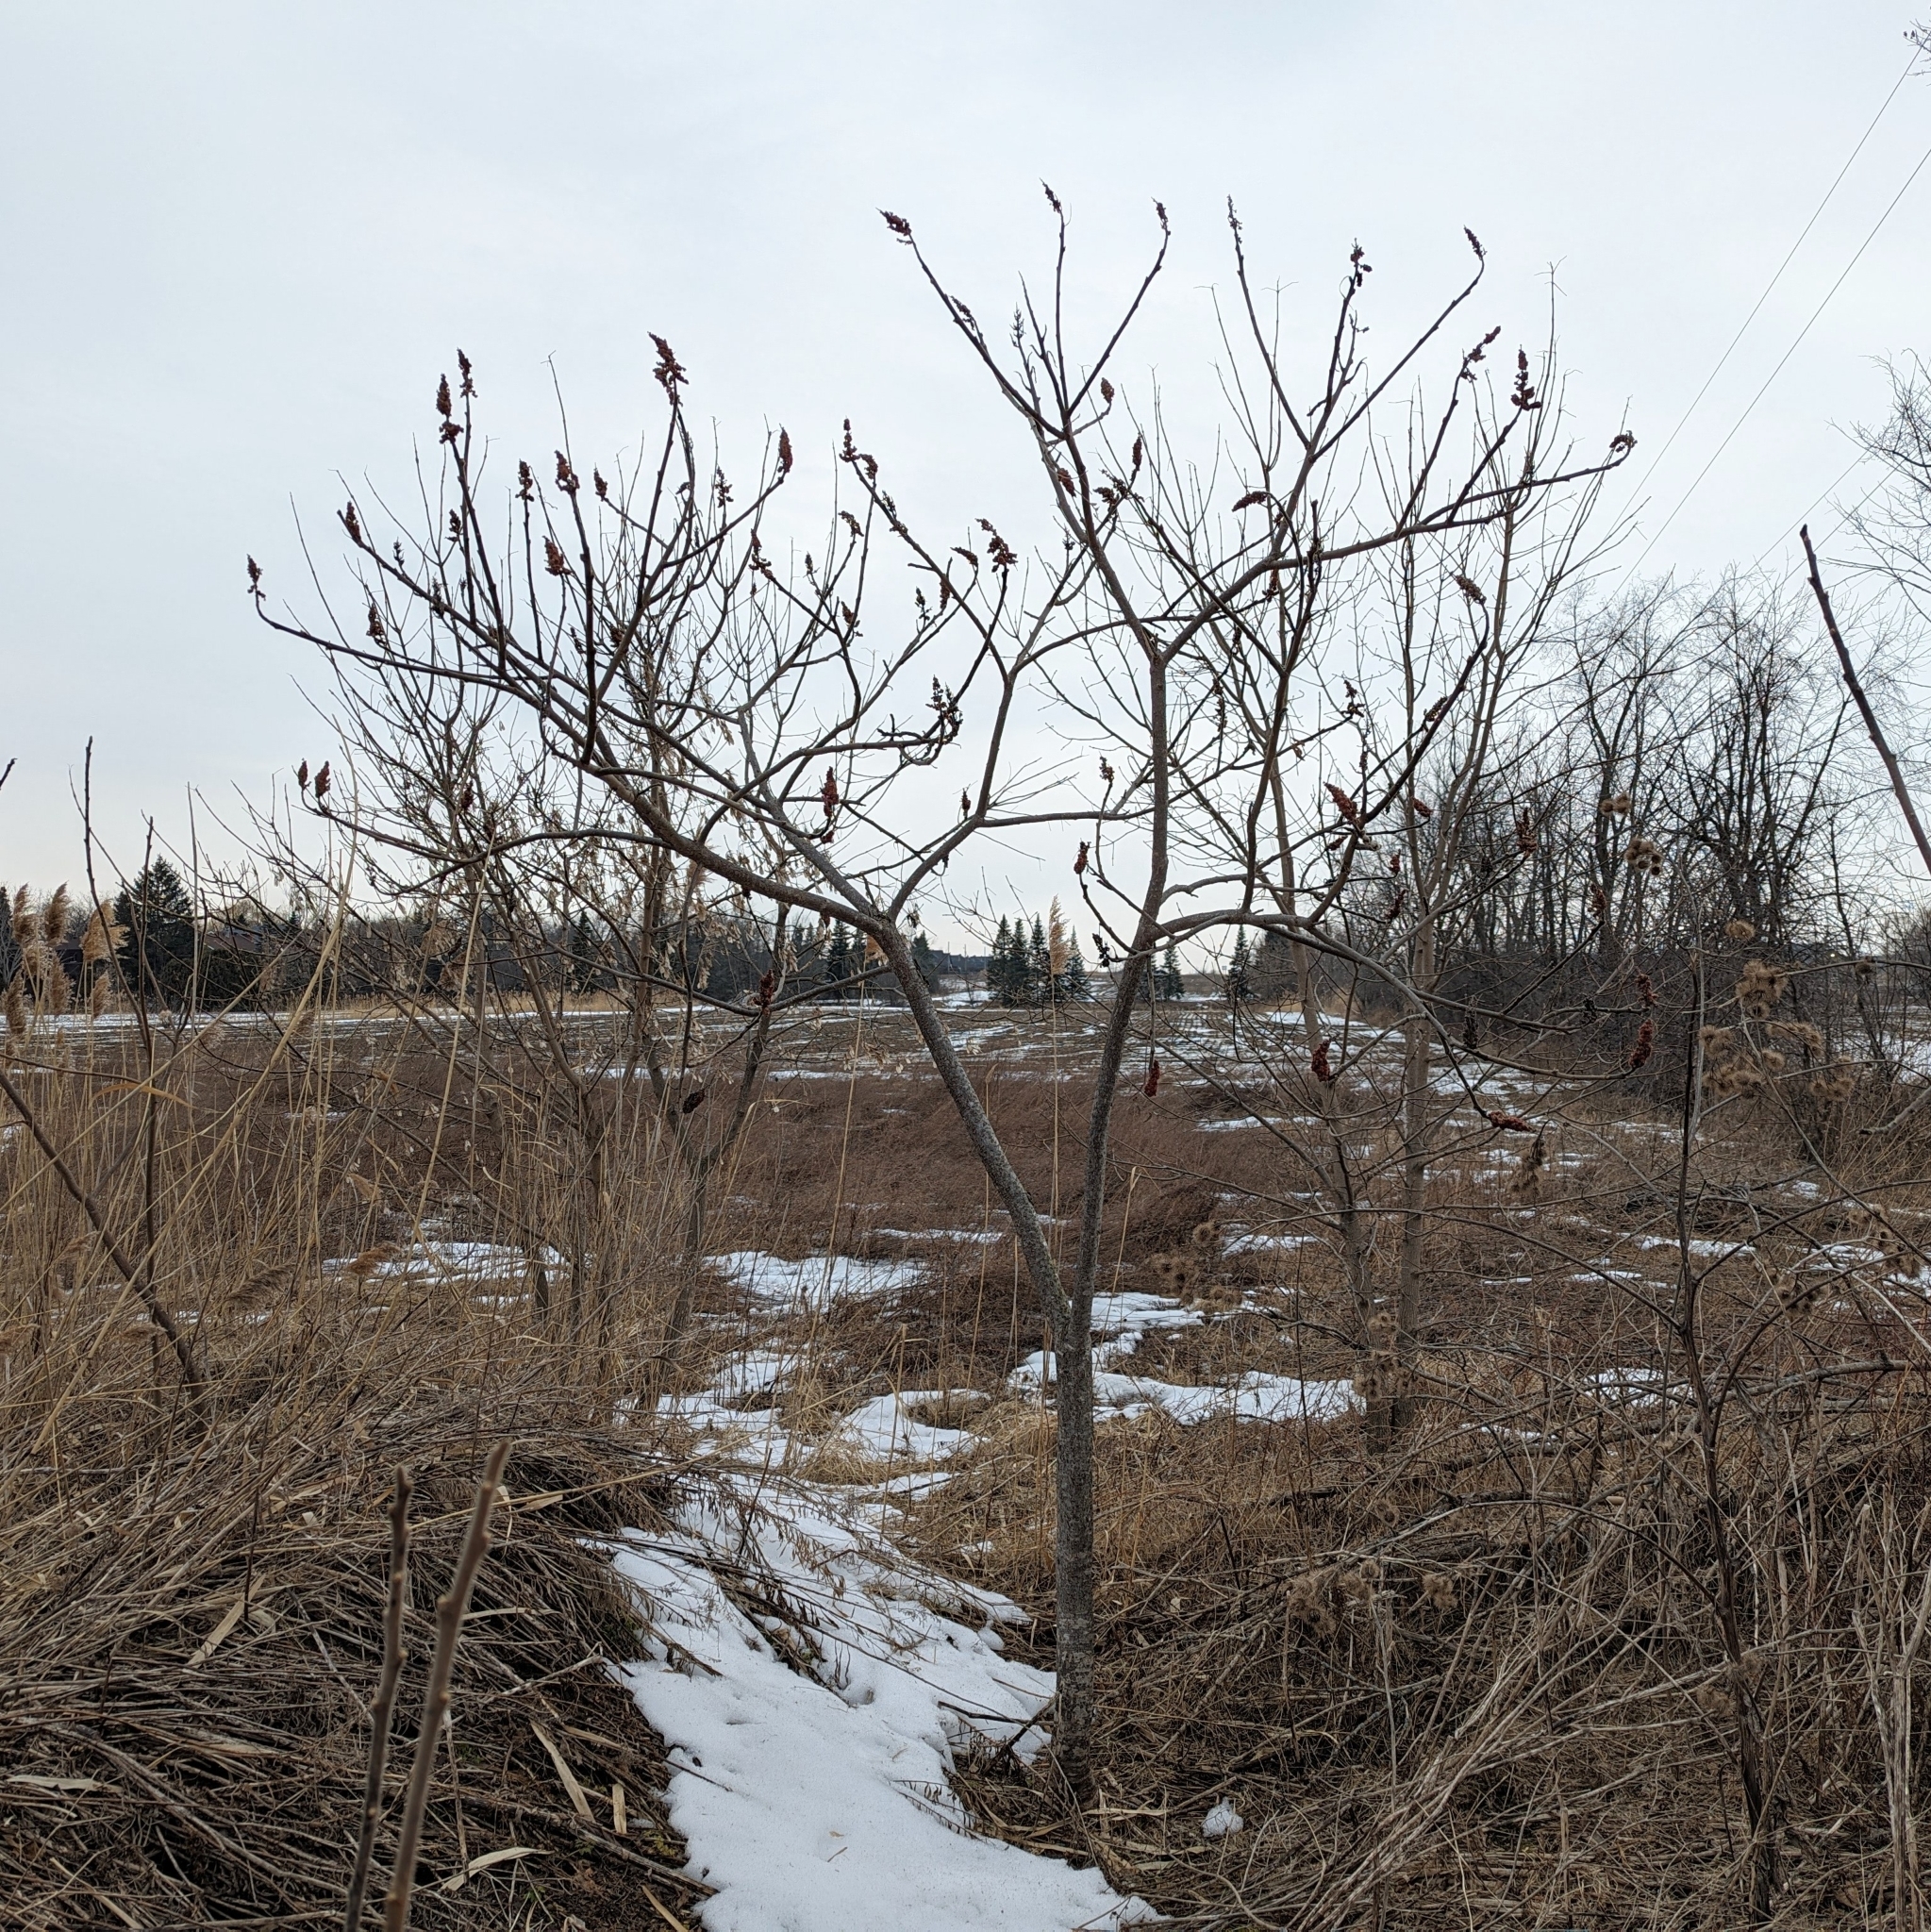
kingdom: Plantae
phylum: Tracheophyta
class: Magnoliopsida
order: Sapindales
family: Anacardiaceae
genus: Rhus
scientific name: Rhus typhina
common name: Staghorn sumac
